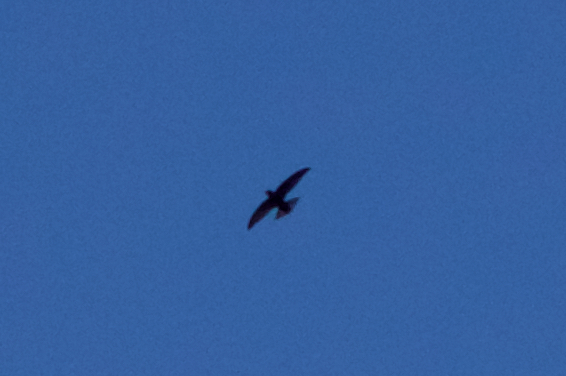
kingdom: Animalia
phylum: Chordata
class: Aves
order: Apodiformes
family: Apodidae
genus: Apus
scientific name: Apus apus
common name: Common swift
